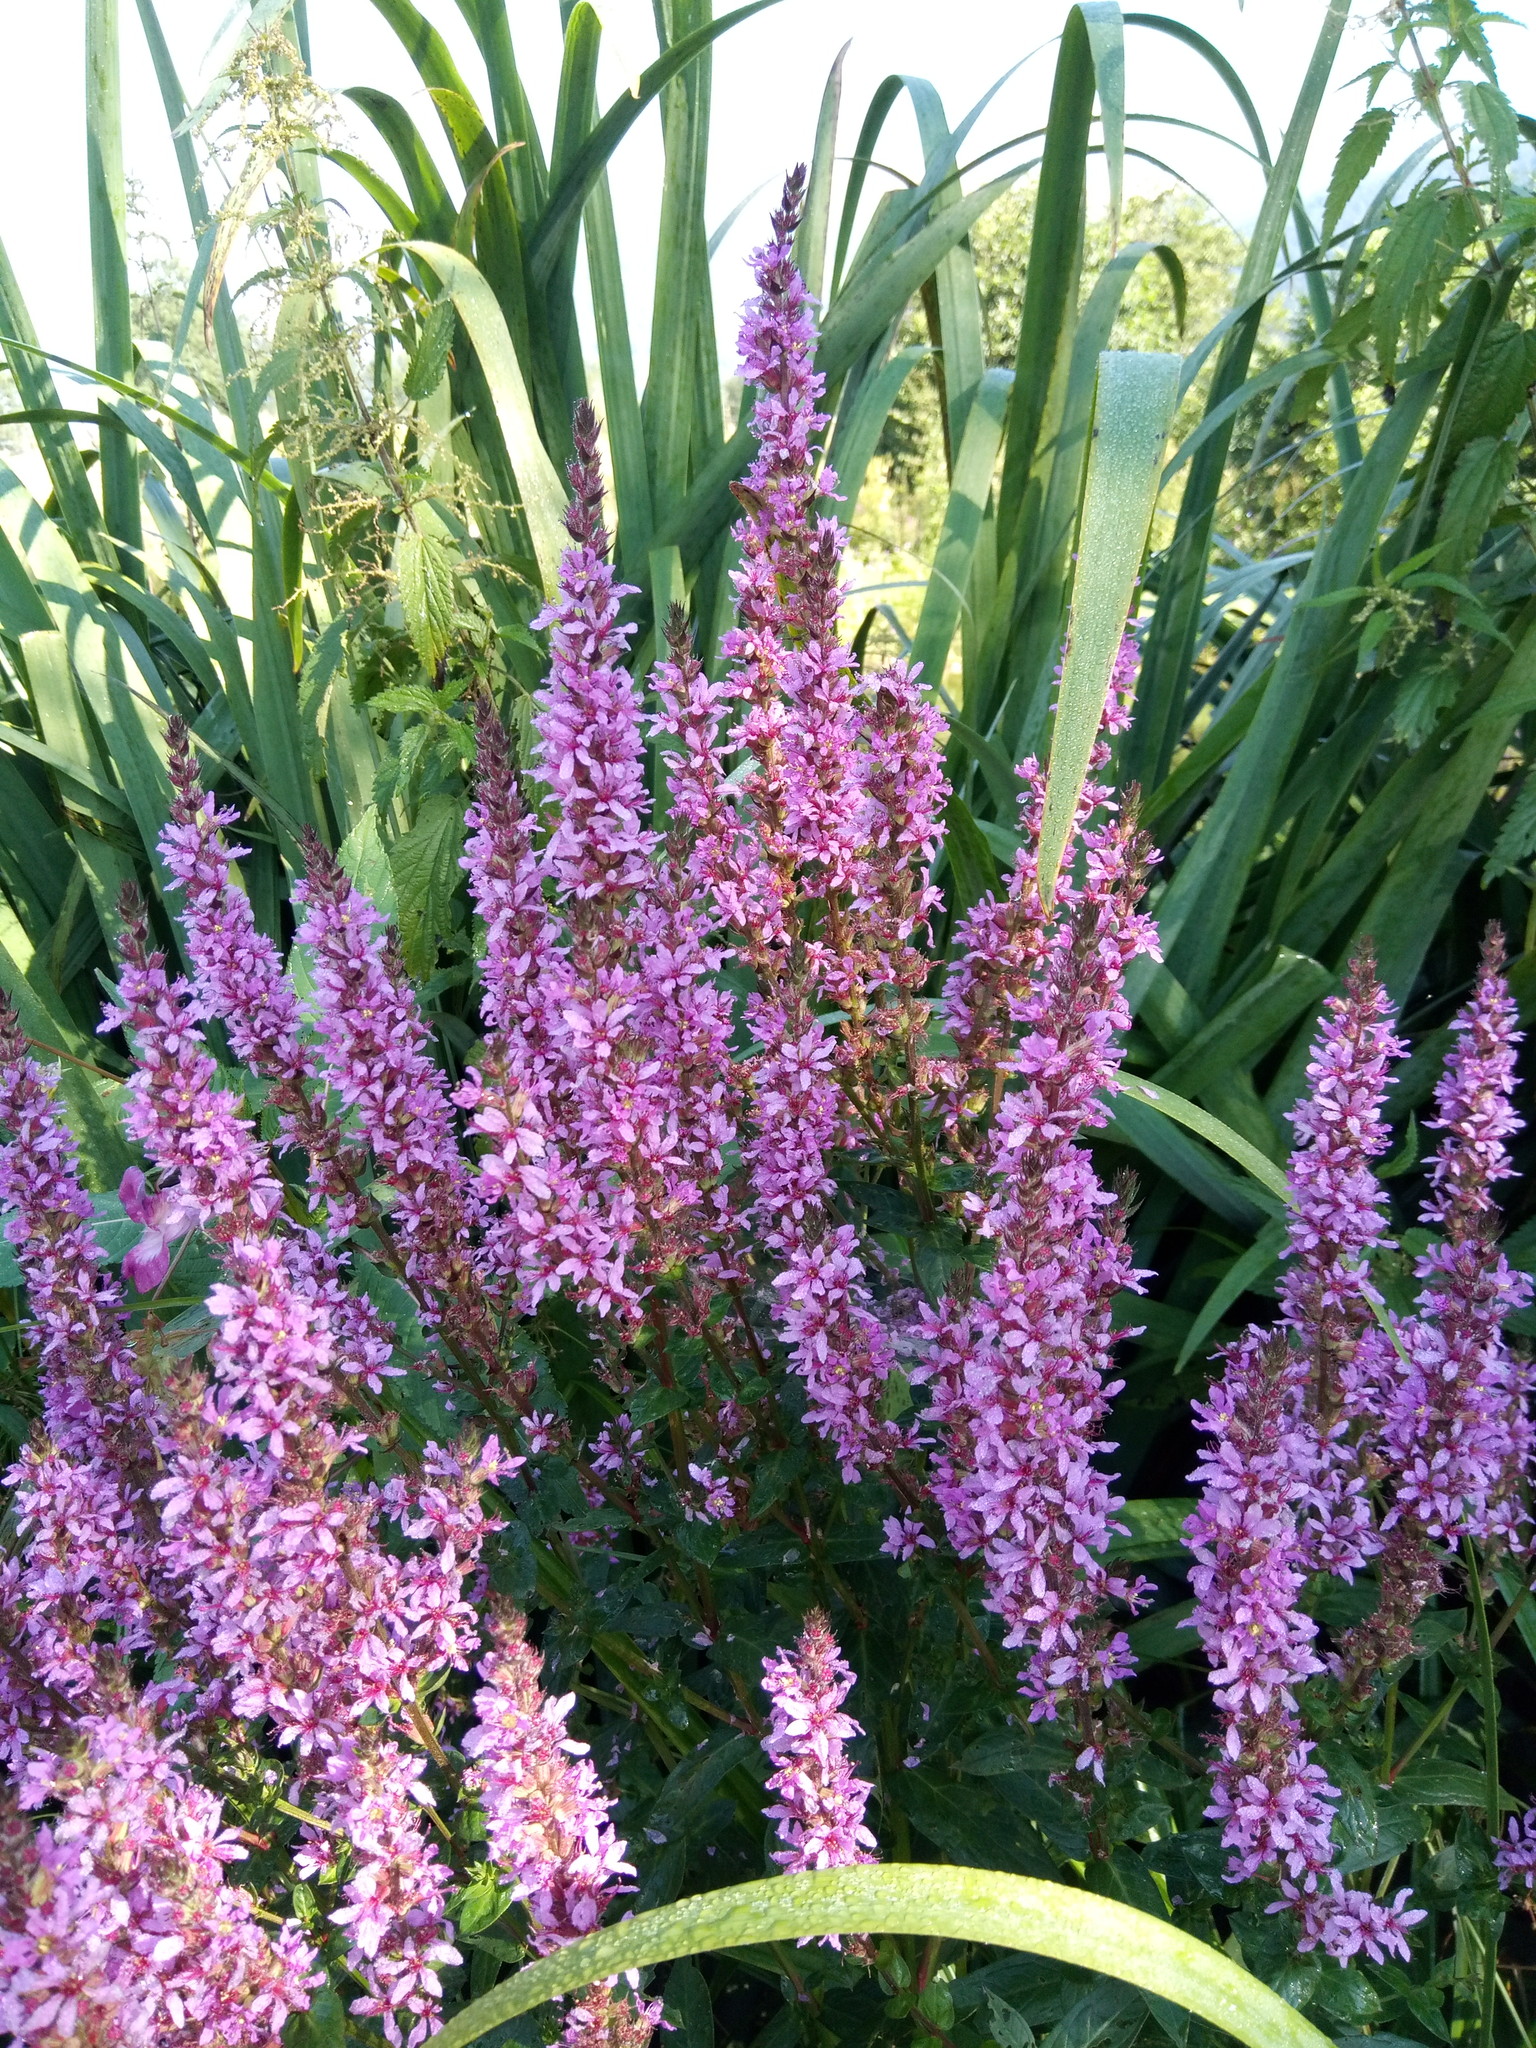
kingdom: Plantae
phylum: Tracheophyta
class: Magnoliopsida
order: Myrtales
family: Lythraceae
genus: Lythrum
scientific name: Lythrum salicaria
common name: Purple loosestrife
